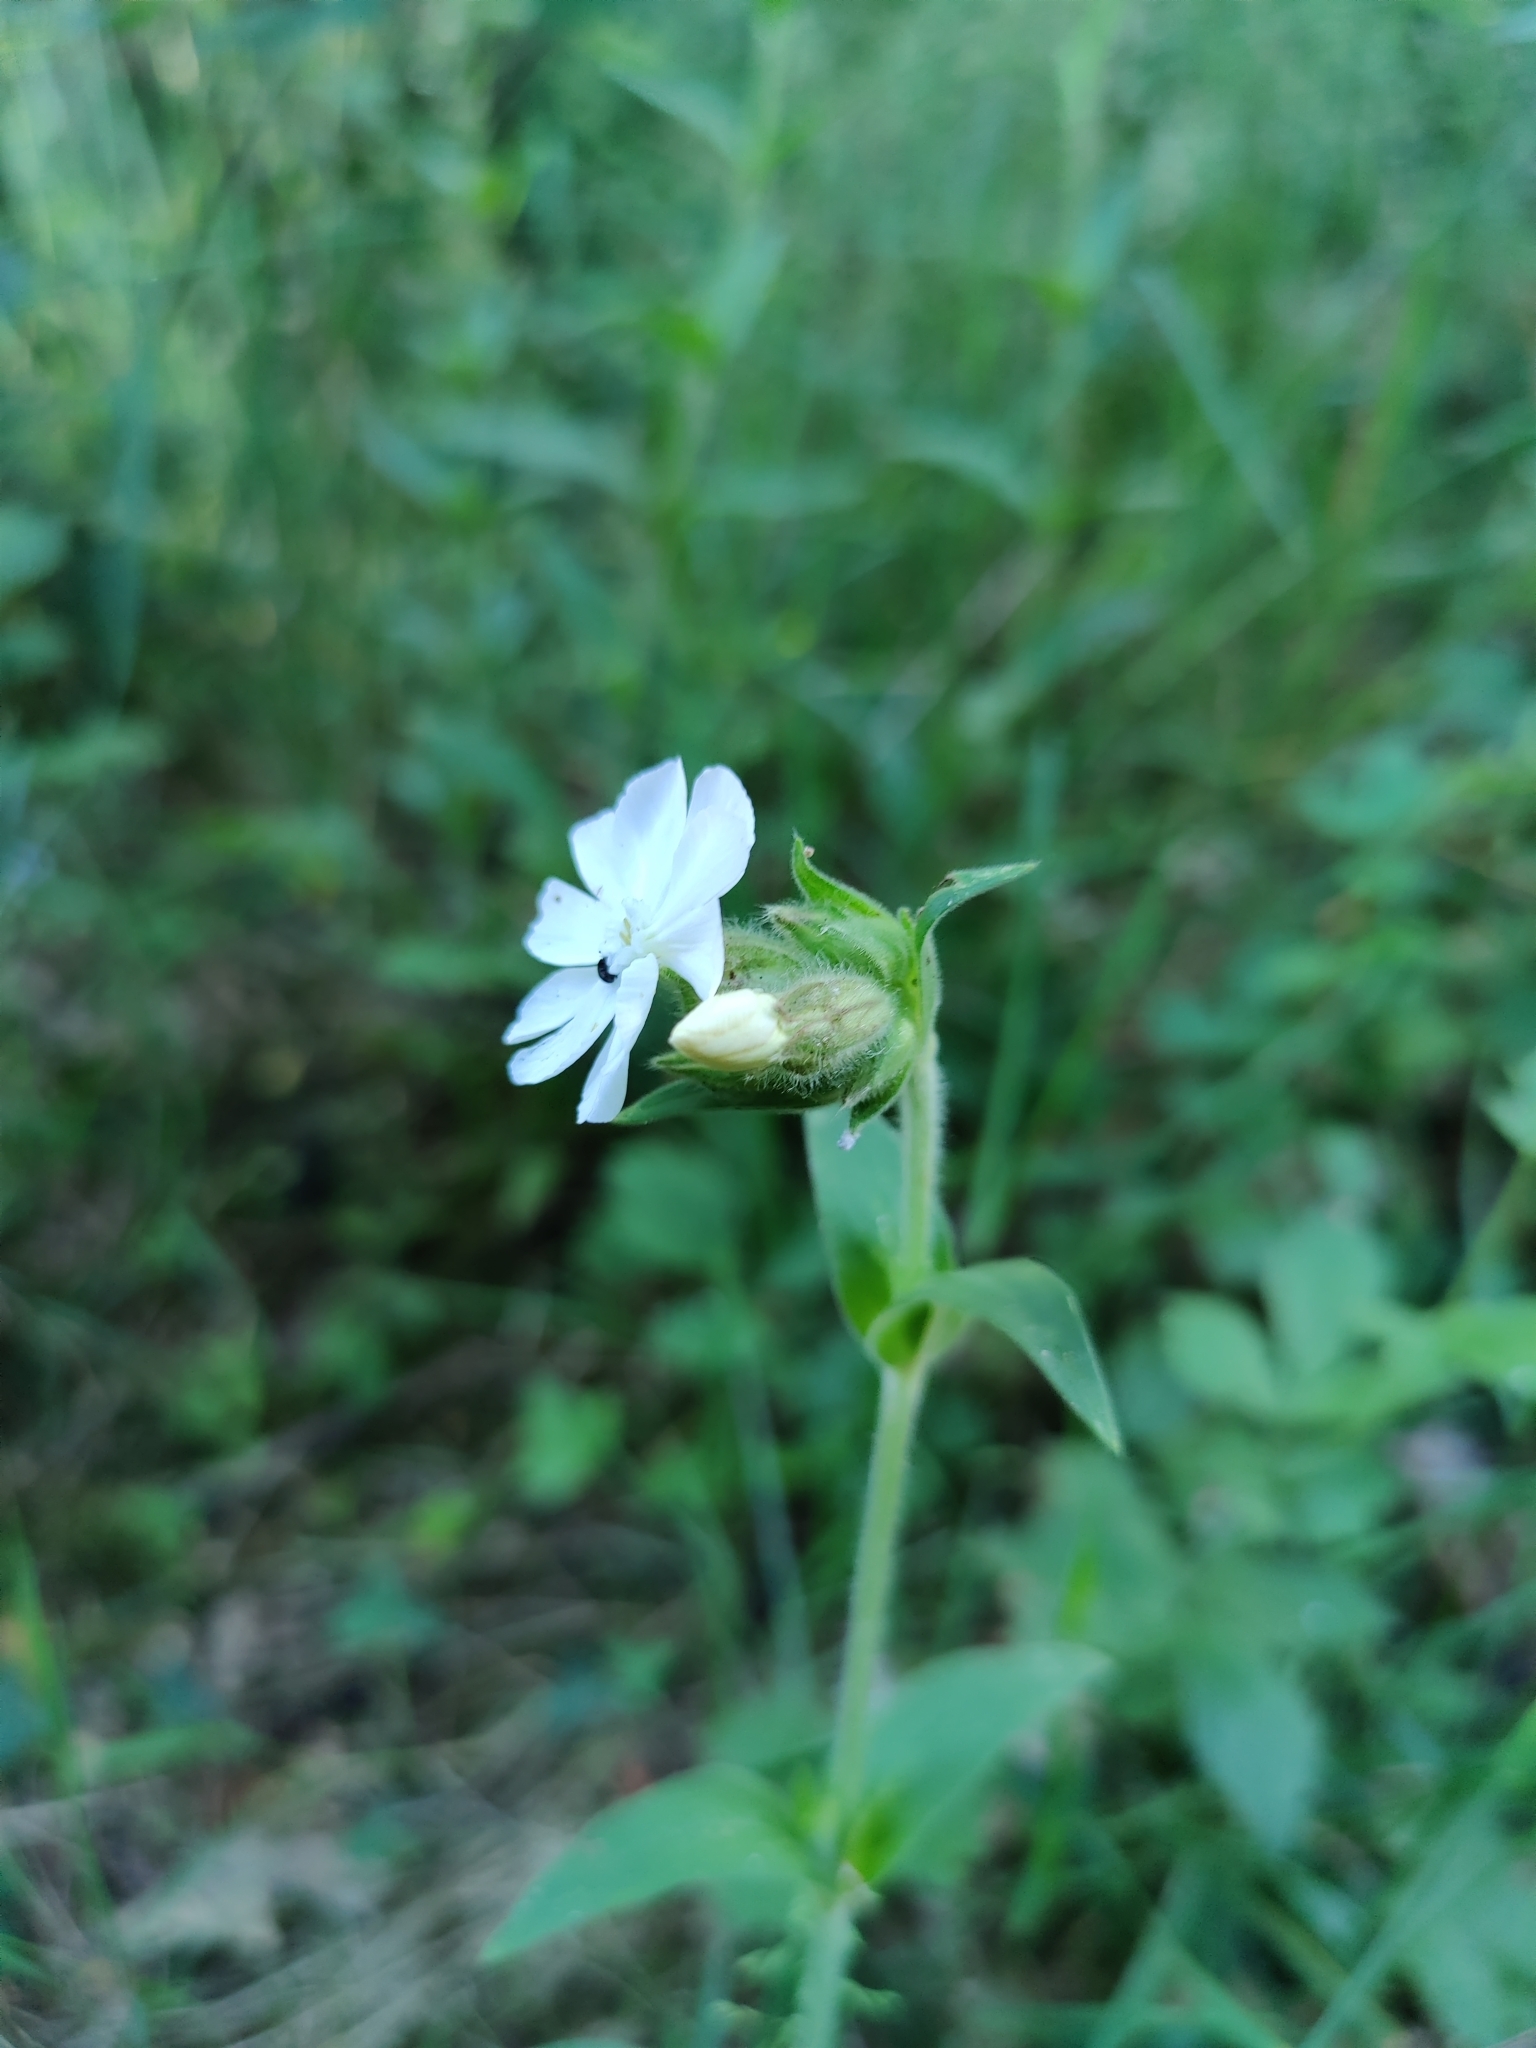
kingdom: Plantae
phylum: Tracheophyta
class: Magnoliopsida
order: Caryophyllales
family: Caryophyllaceae
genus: Silene
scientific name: Silene latifolia
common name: White campion
